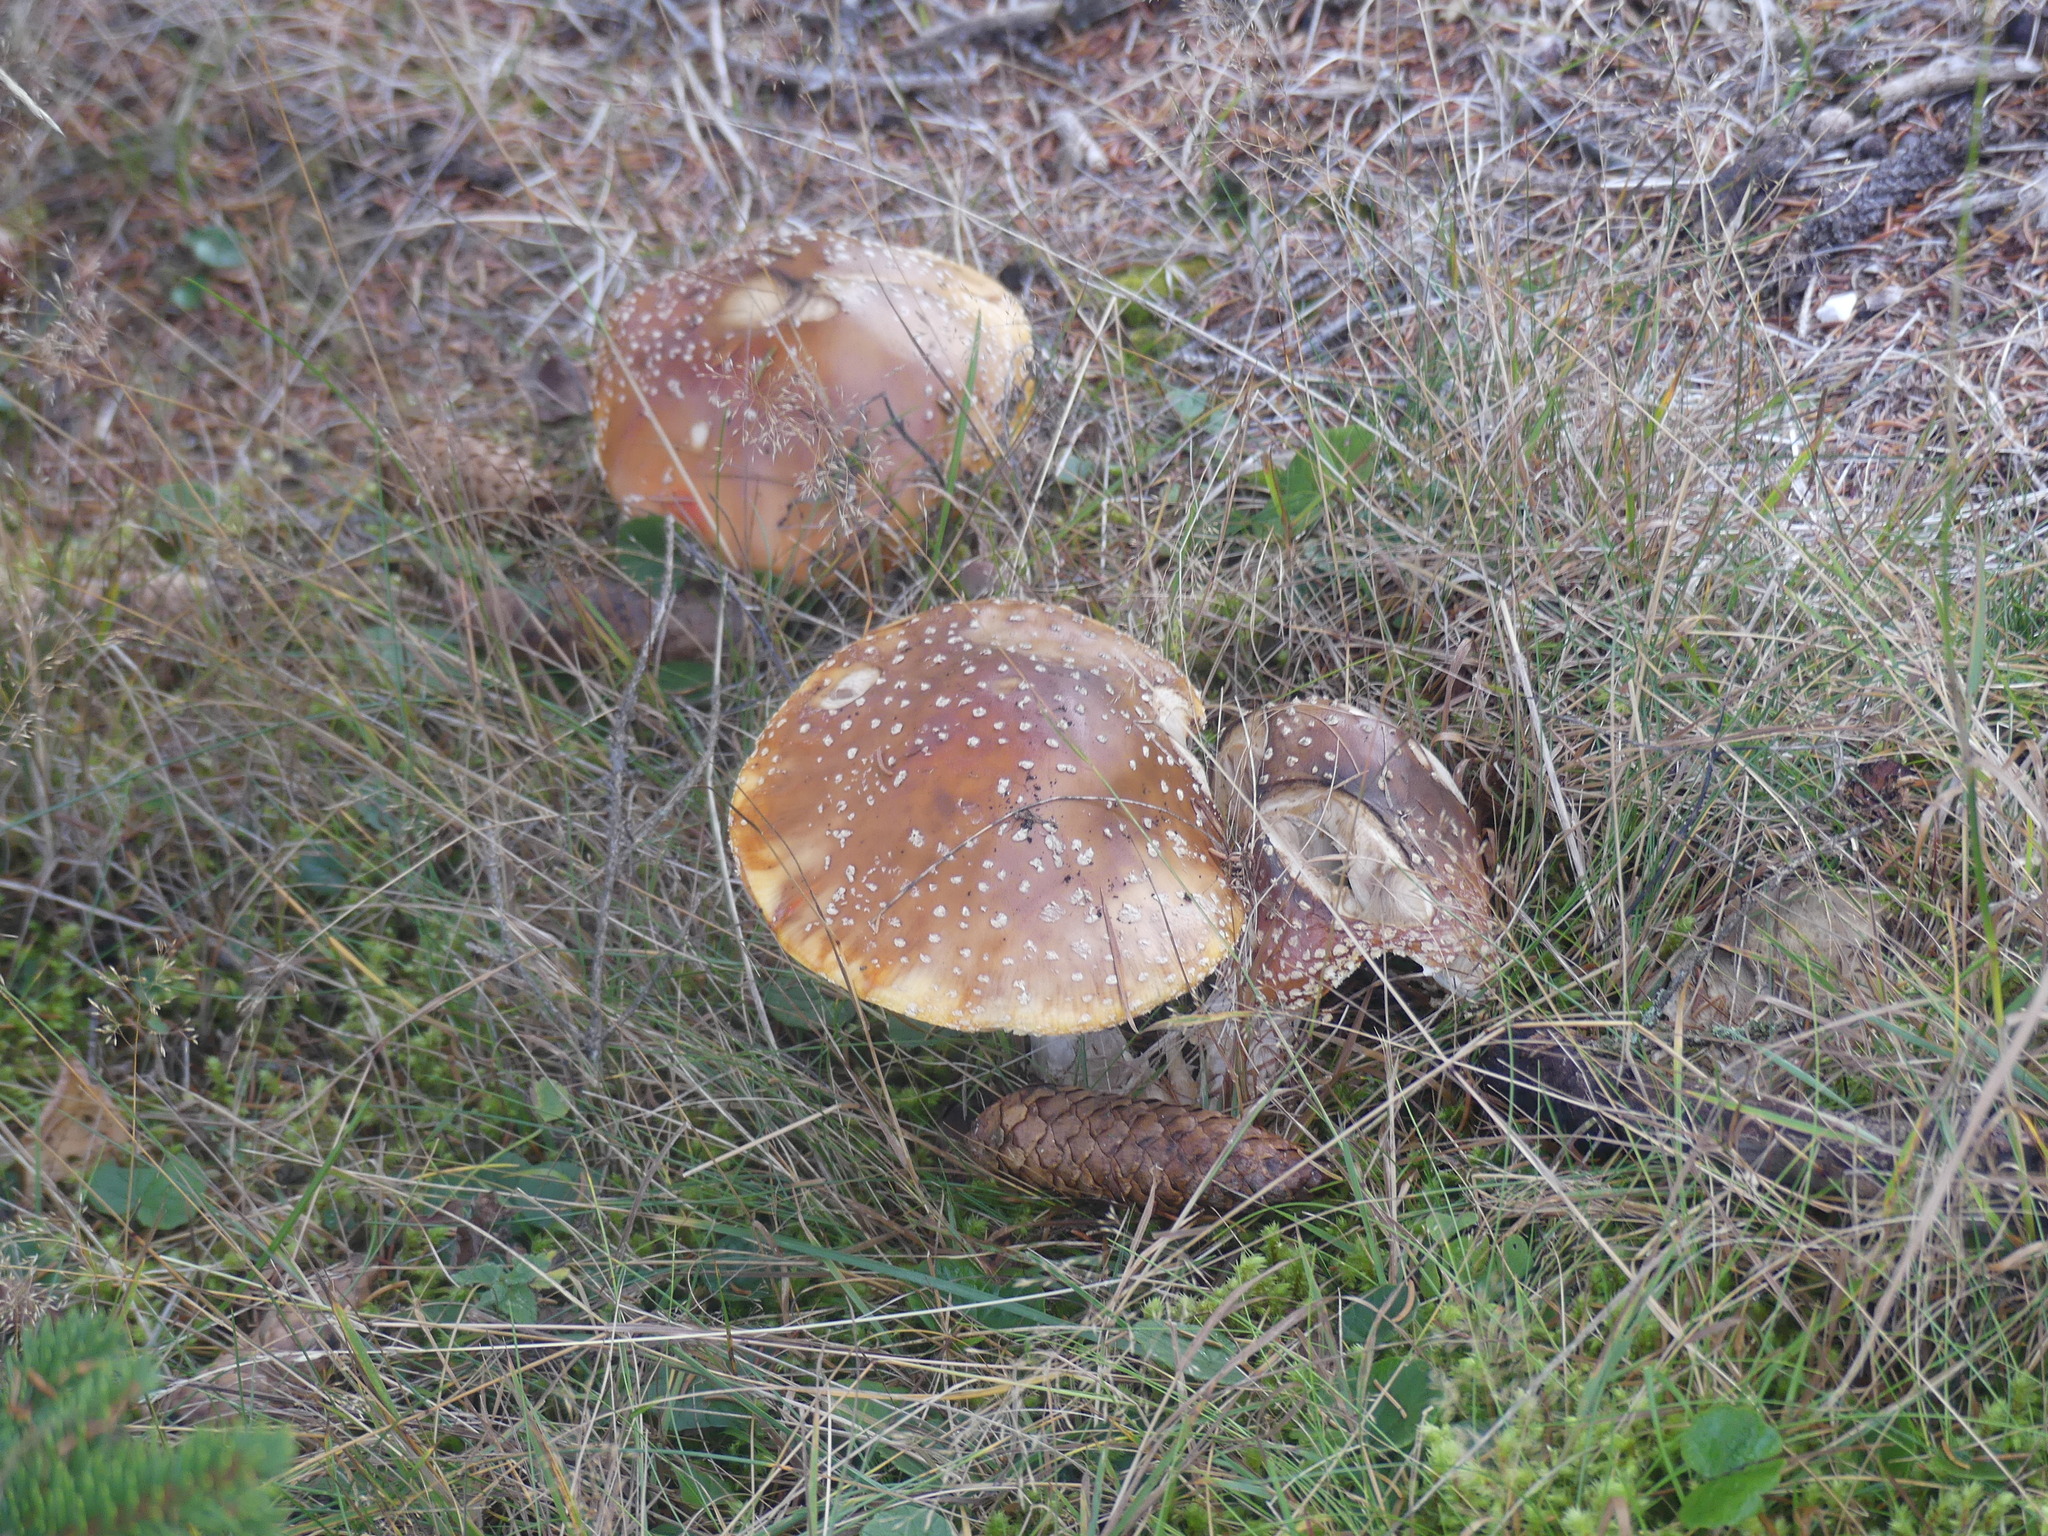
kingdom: Fungi
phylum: Basidiomycota
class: Agaricomycetes
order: Agaricales
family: Amanitaceae
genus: Amanita
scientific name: Amanita muscaria
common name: Fly agaric
